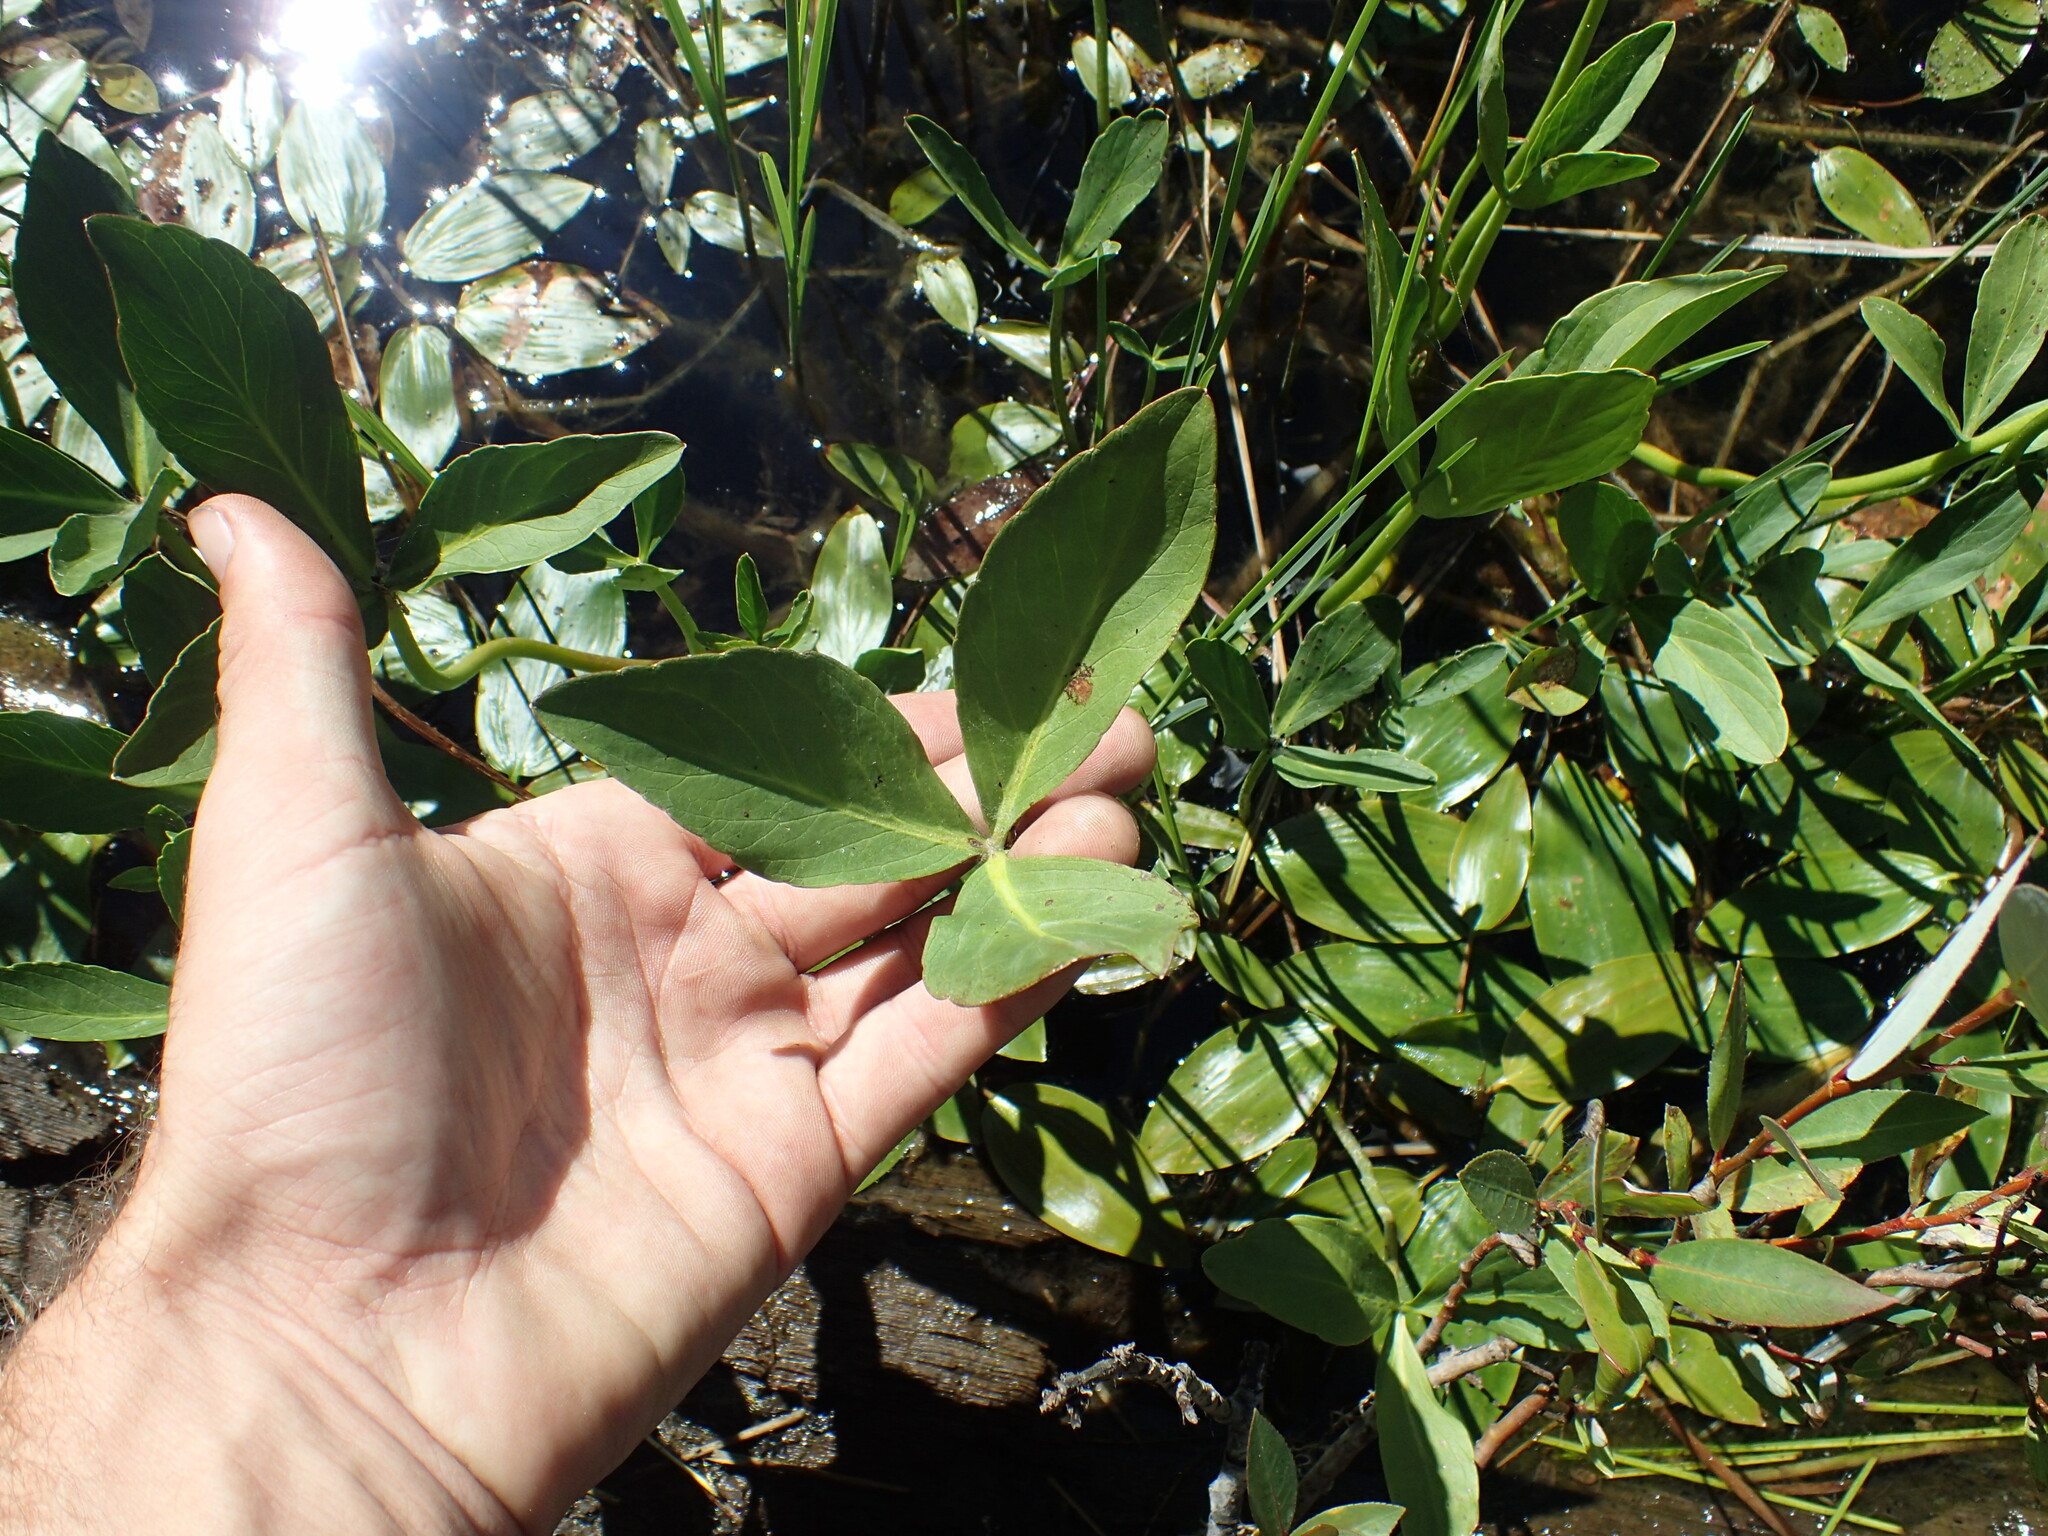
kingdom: Plantae
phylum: Tracheophyta
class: Magnoliopsida
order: Asterales
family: Menyanthaceae
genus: Menyanthes
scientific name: Menyanthes trifoliata
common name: Bogbean
